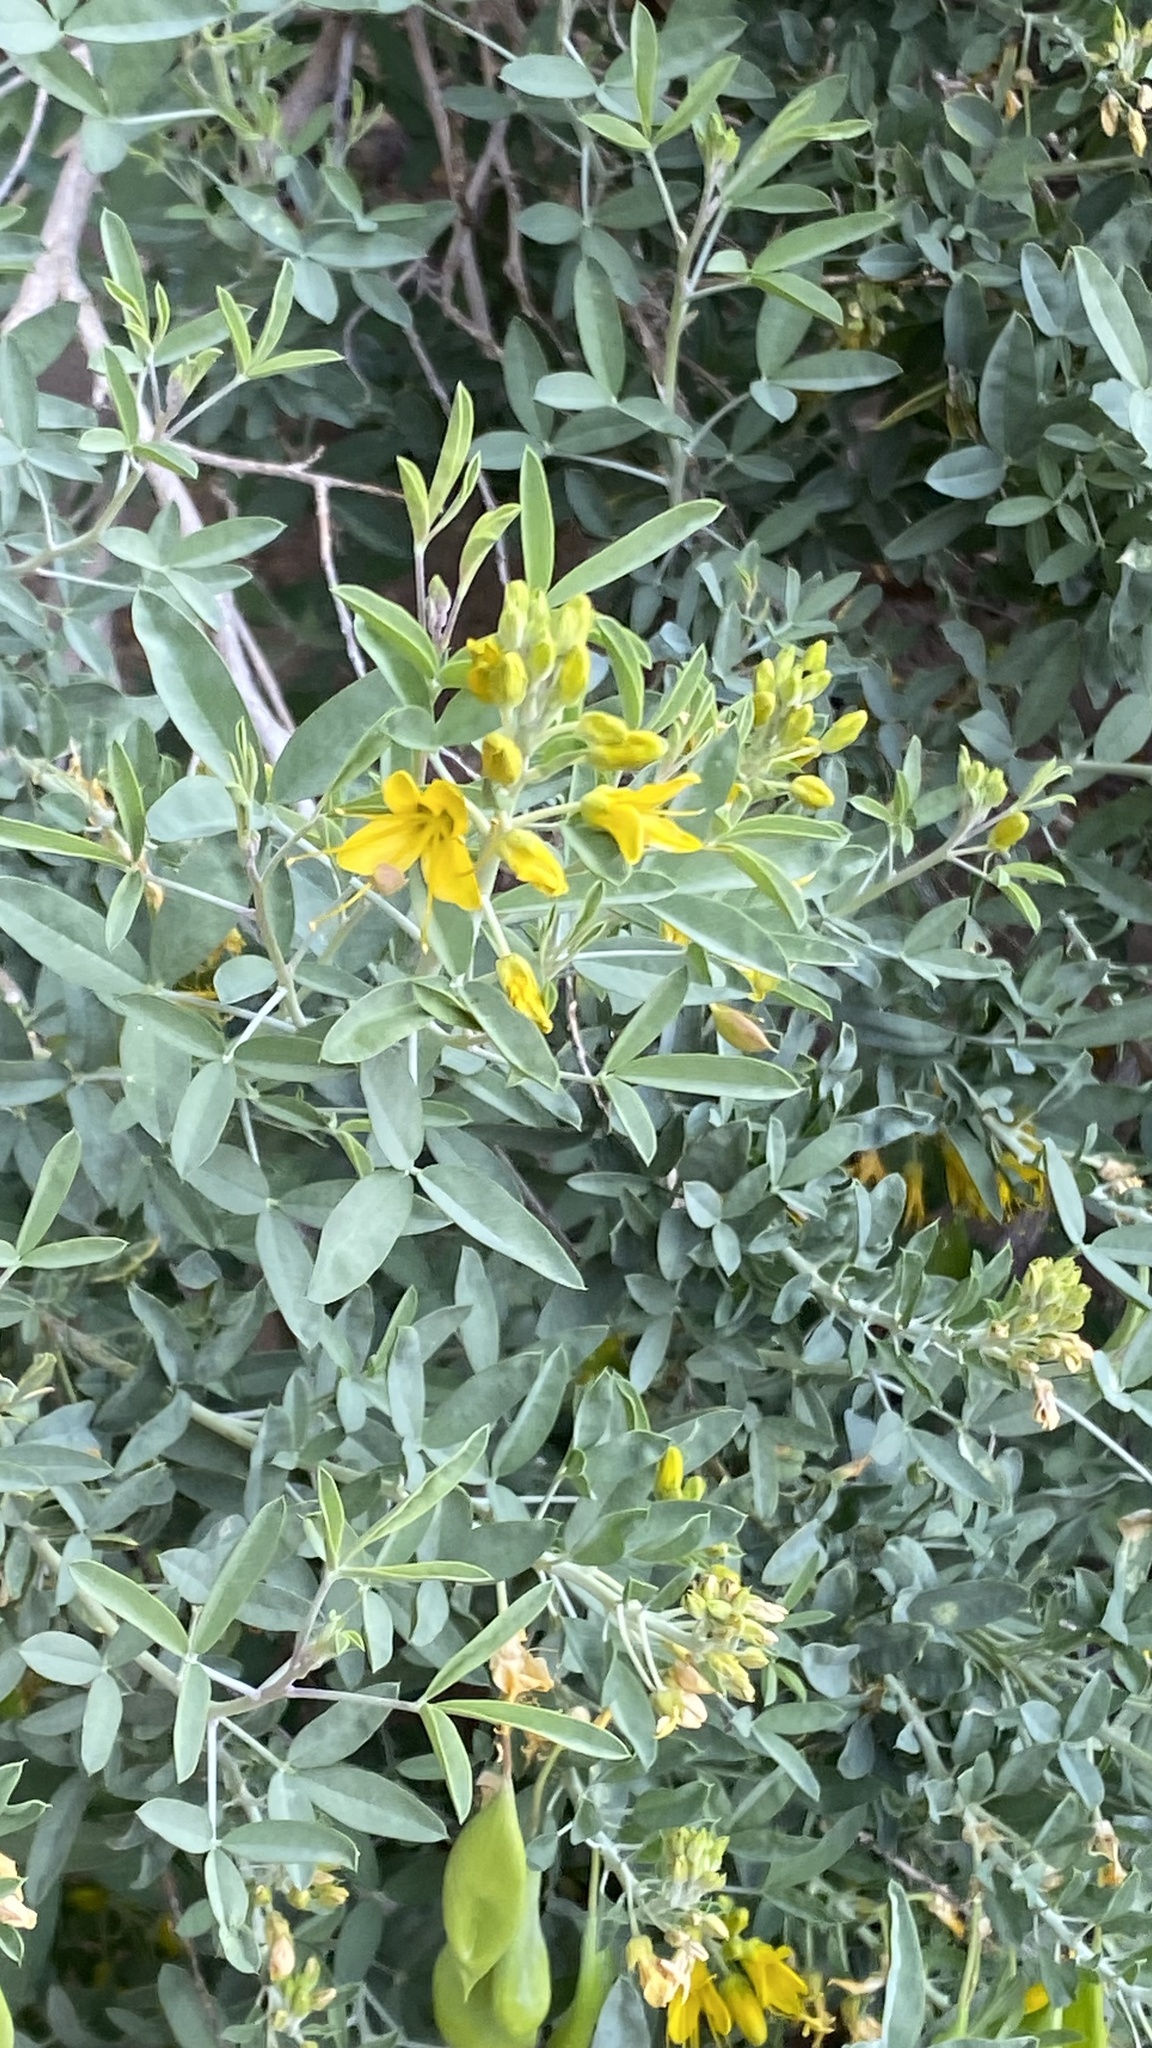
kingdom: Plantae
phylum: Tracheophyta
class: Magnoliopsida
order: Brassicales
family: Cleomaceae
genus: Cleomella
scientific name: Cleomella arborea
